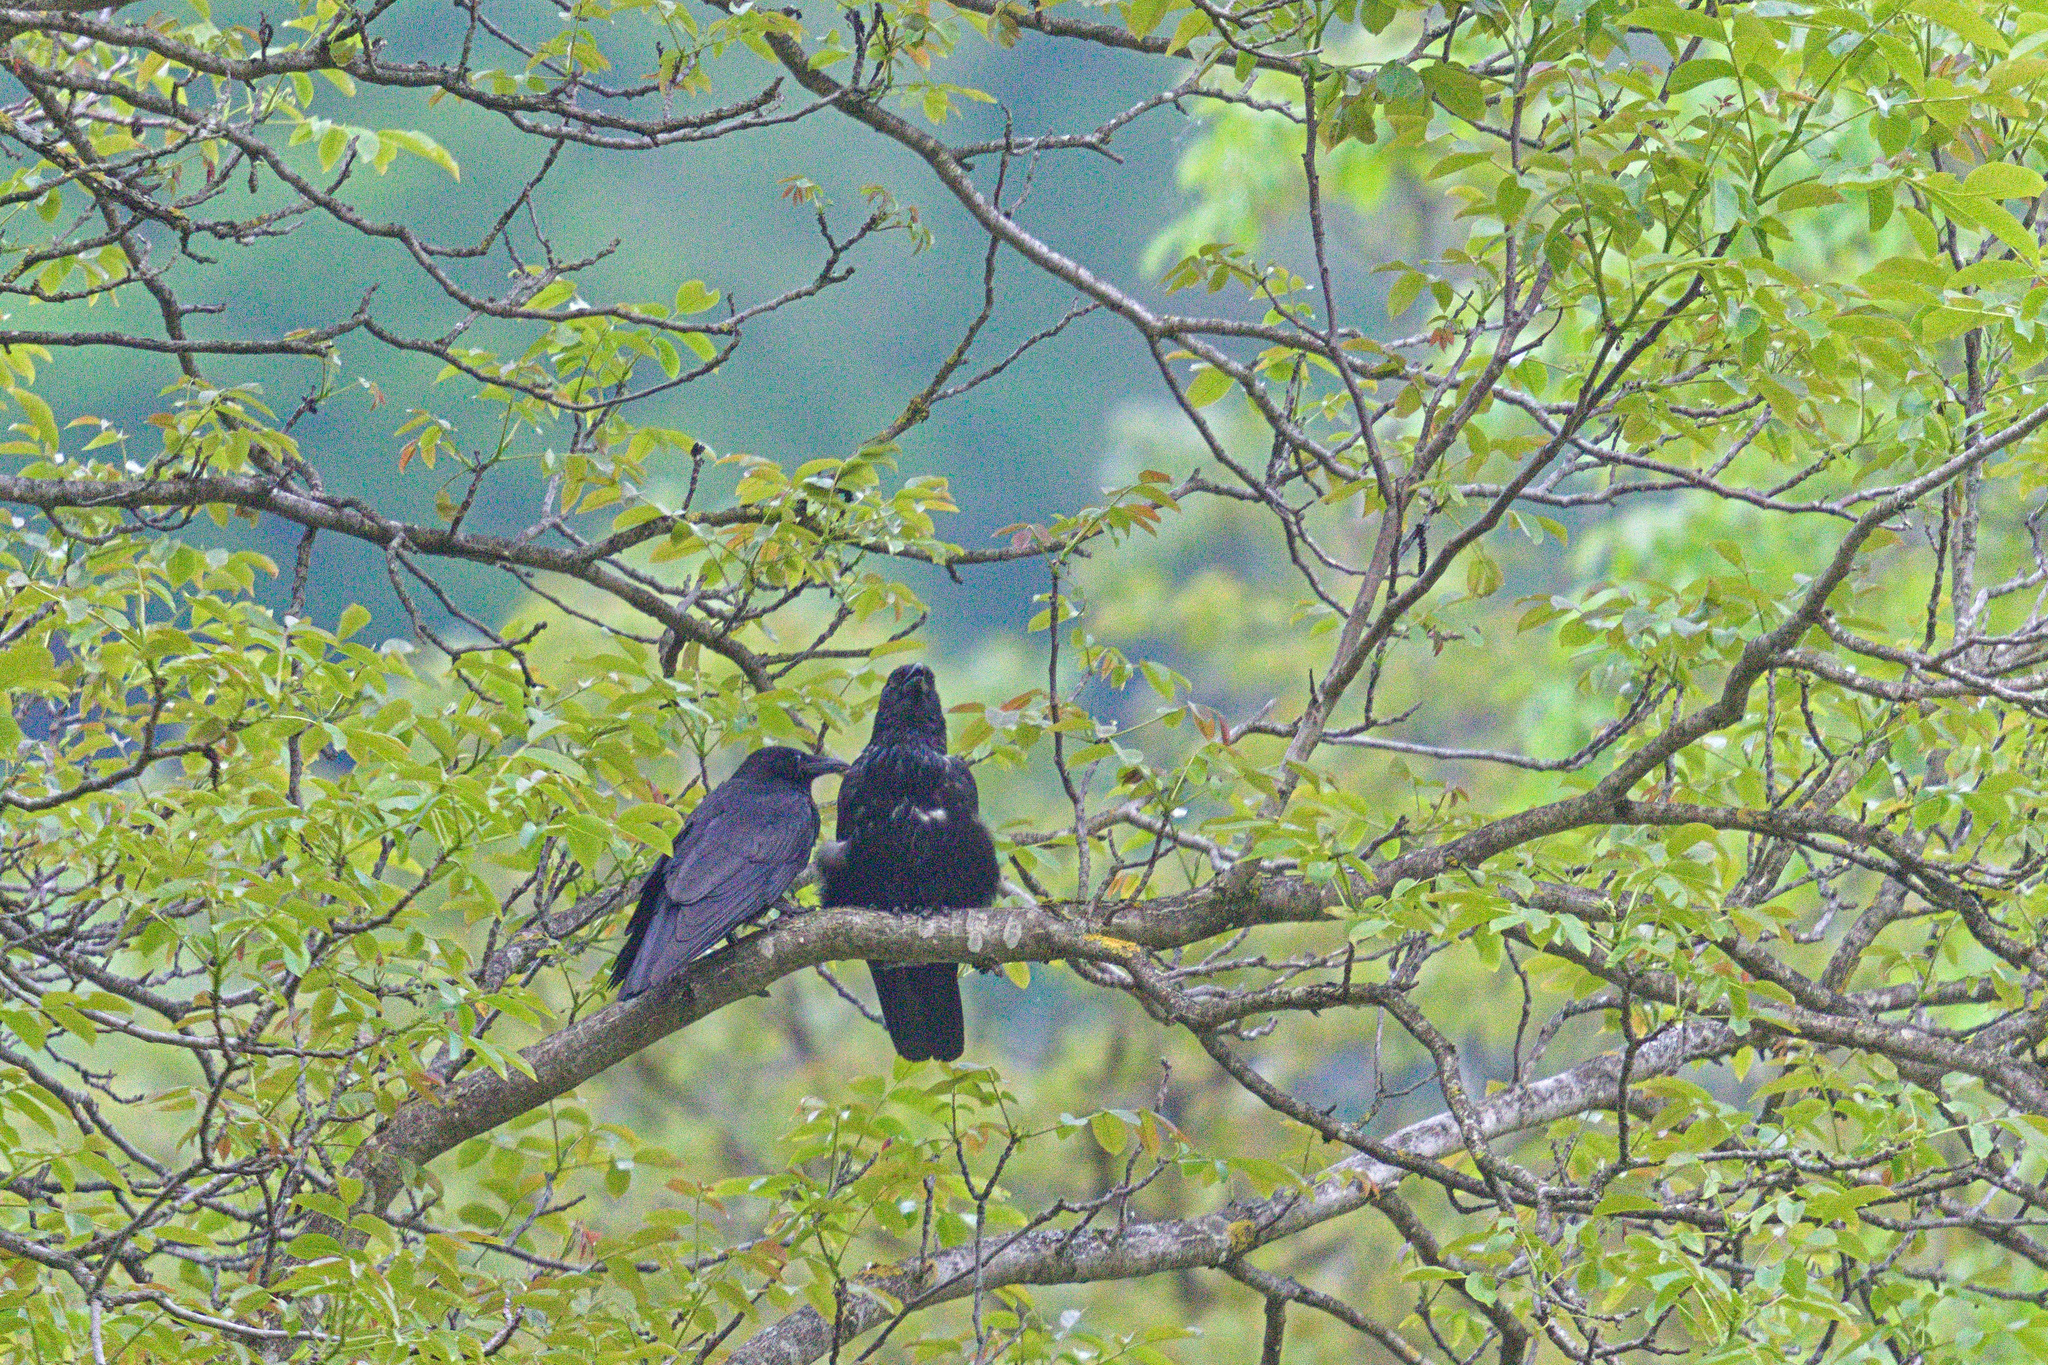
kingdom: Animalia
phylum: Chordata
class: Aves
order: Passeriformes
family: Corvidae
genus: Corvus
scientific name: Corvus corone
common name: Carrion crow
